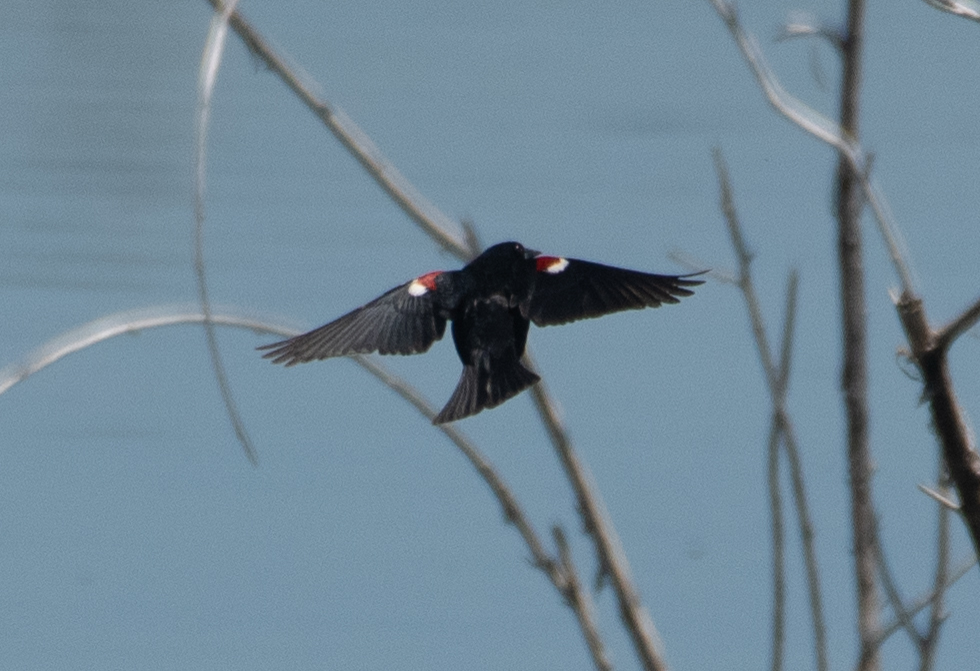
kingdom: Animalia
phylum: Chordata
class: Aves
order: Passeriformes
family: Icteridae
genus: Agelaius
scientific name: Agelaius tricolor
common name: Tricolored blackbird
